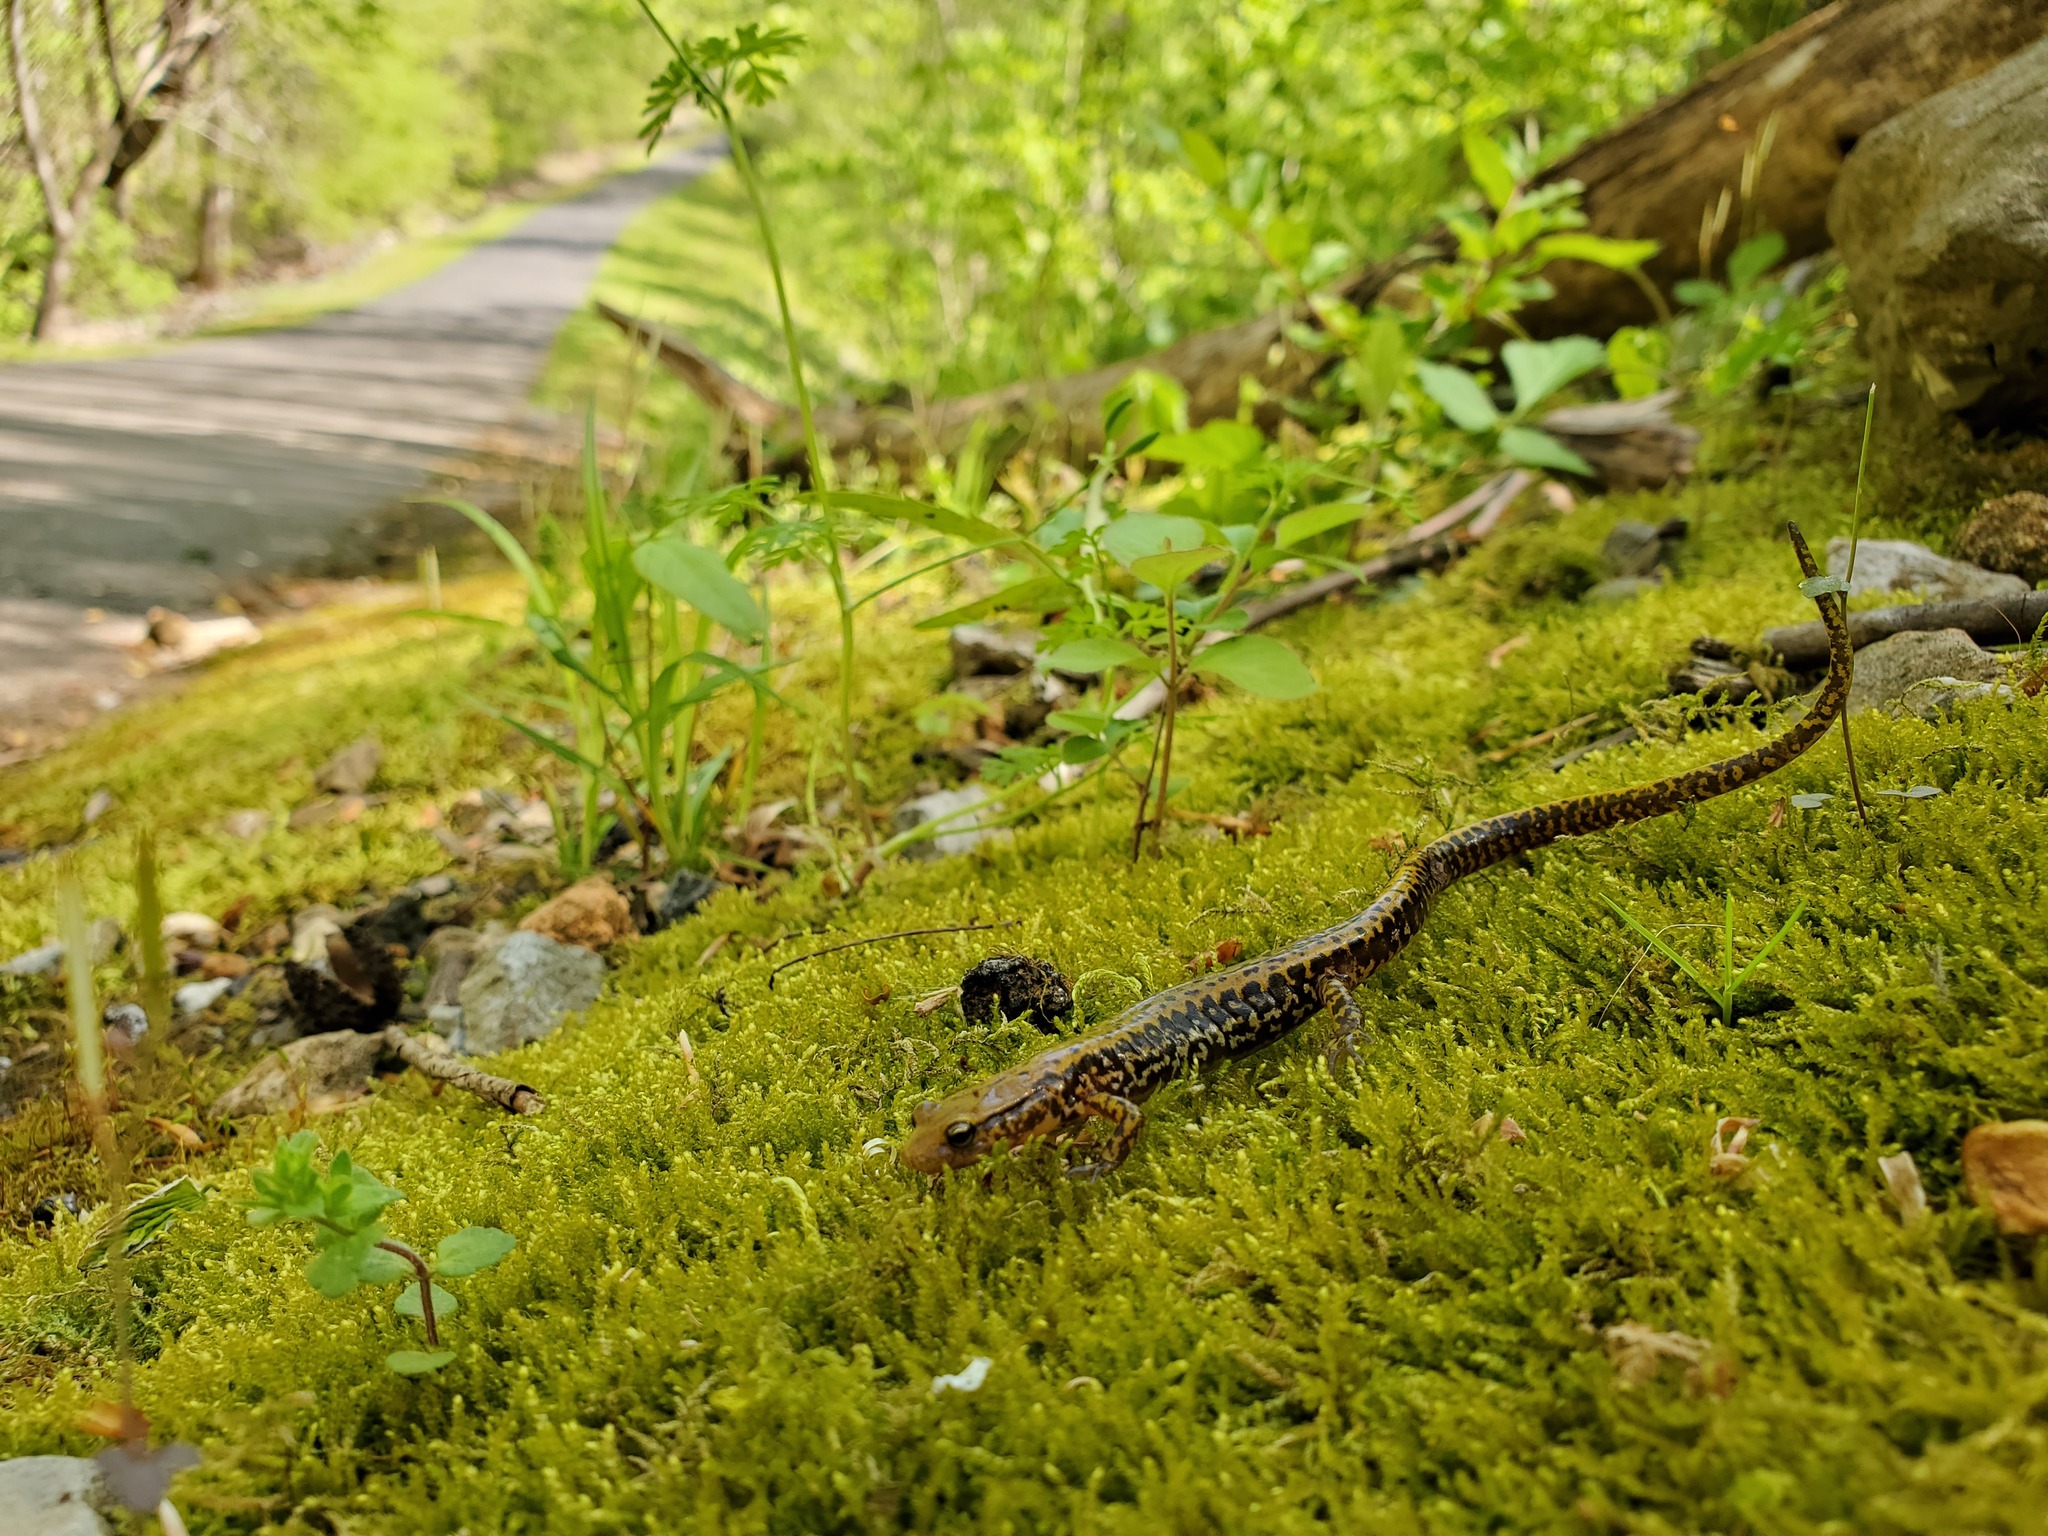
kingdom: Animalia
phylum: Chordata
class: Amphibia
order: Caudata
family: Plethodontidae
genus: Eurycea
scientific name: Eurycea longicauda
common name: Long-tailed salamander
